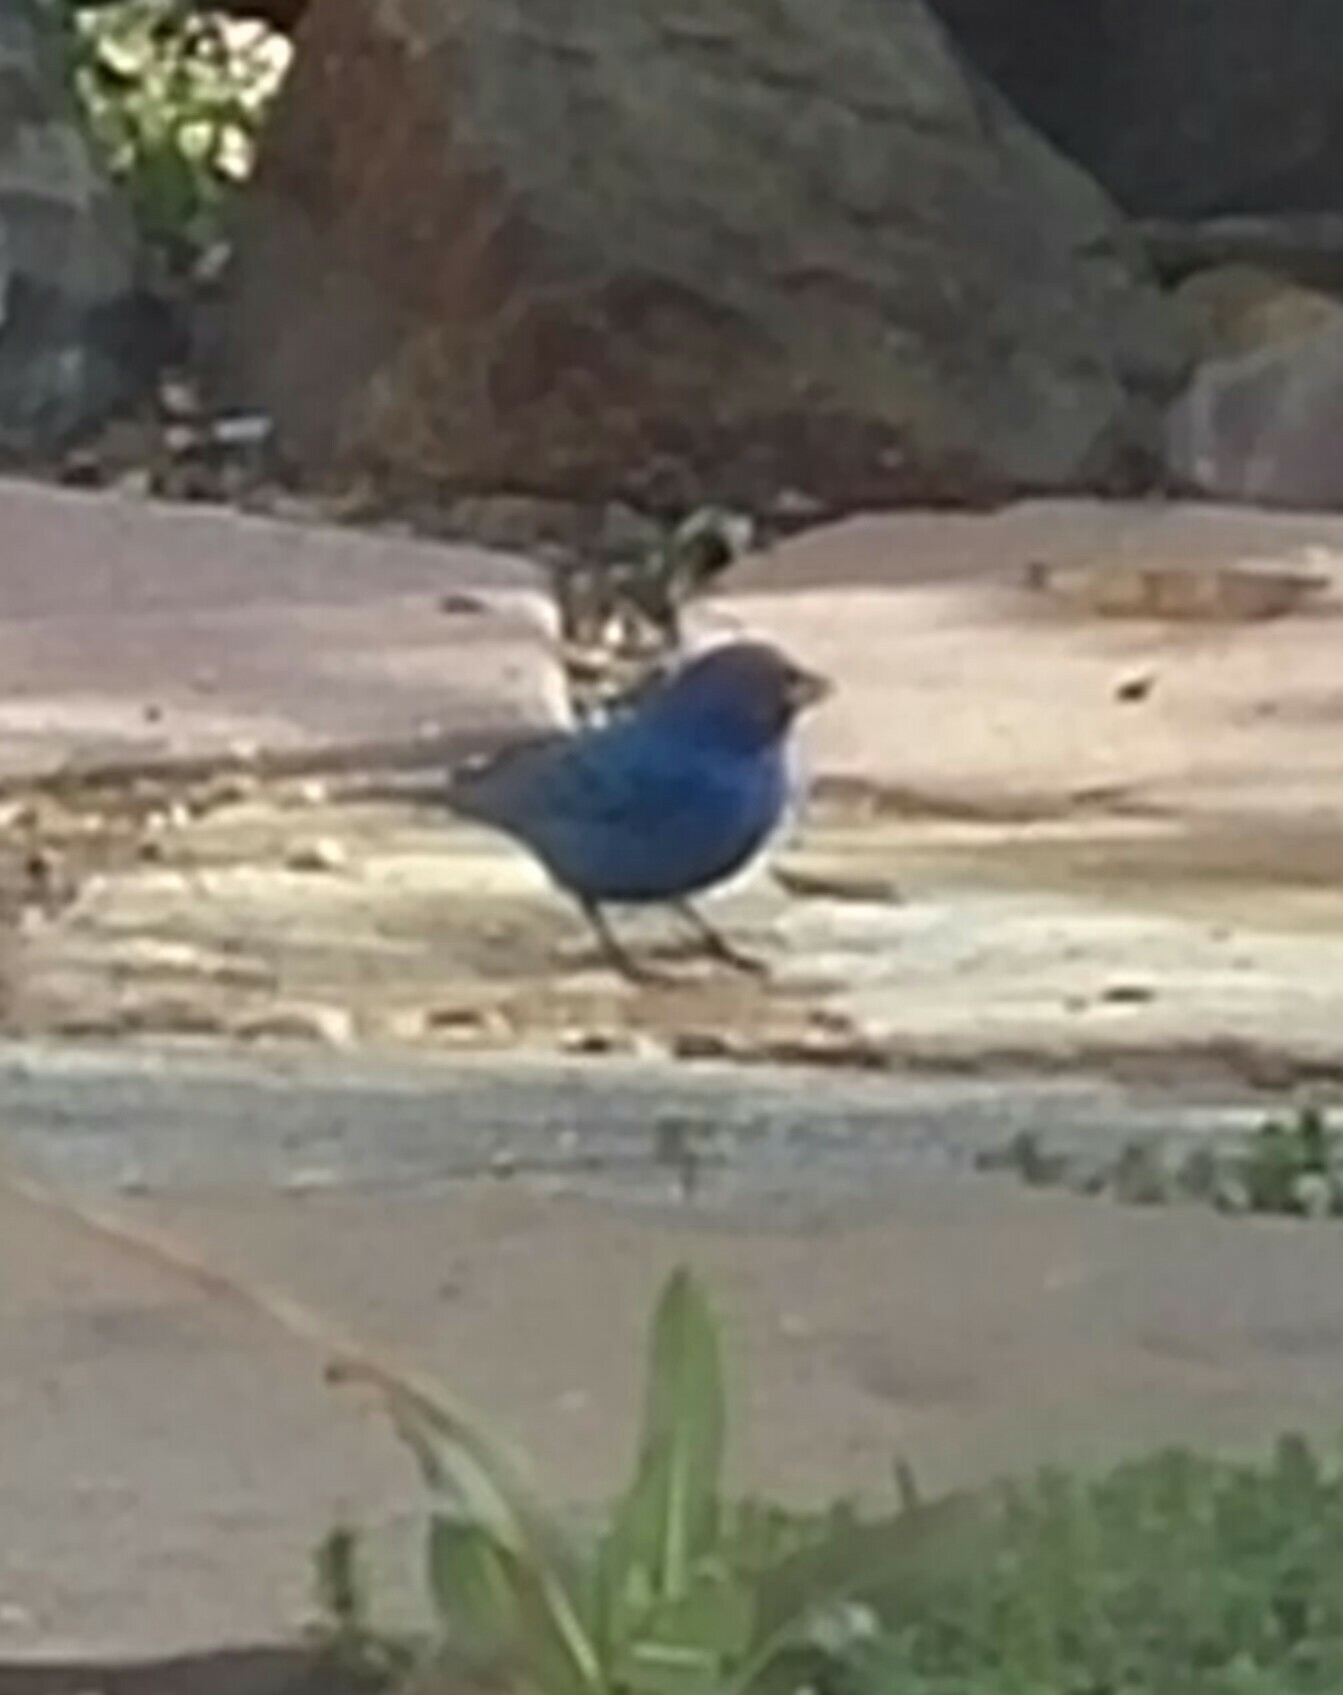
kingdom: Animalia
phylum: Chordata
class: Aves
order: Passeriformes
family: Cardinalidae
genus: Passerina
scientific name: Passerina cyanea
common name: Indigo bunting
